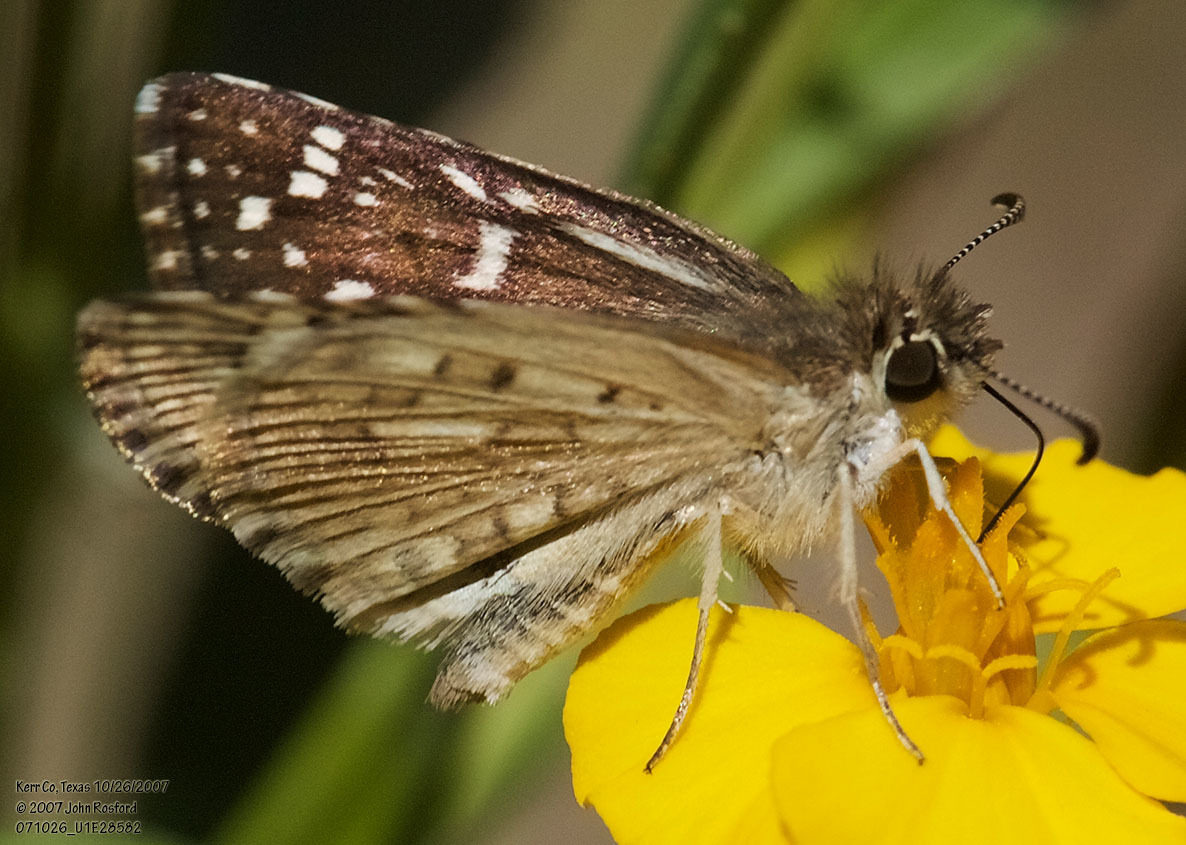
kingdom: Animalia
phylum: Arthropoda
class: Insecta
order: Lepidoptera
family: Hesperiidae
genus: Burnsius
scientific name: Burnsius philetas
